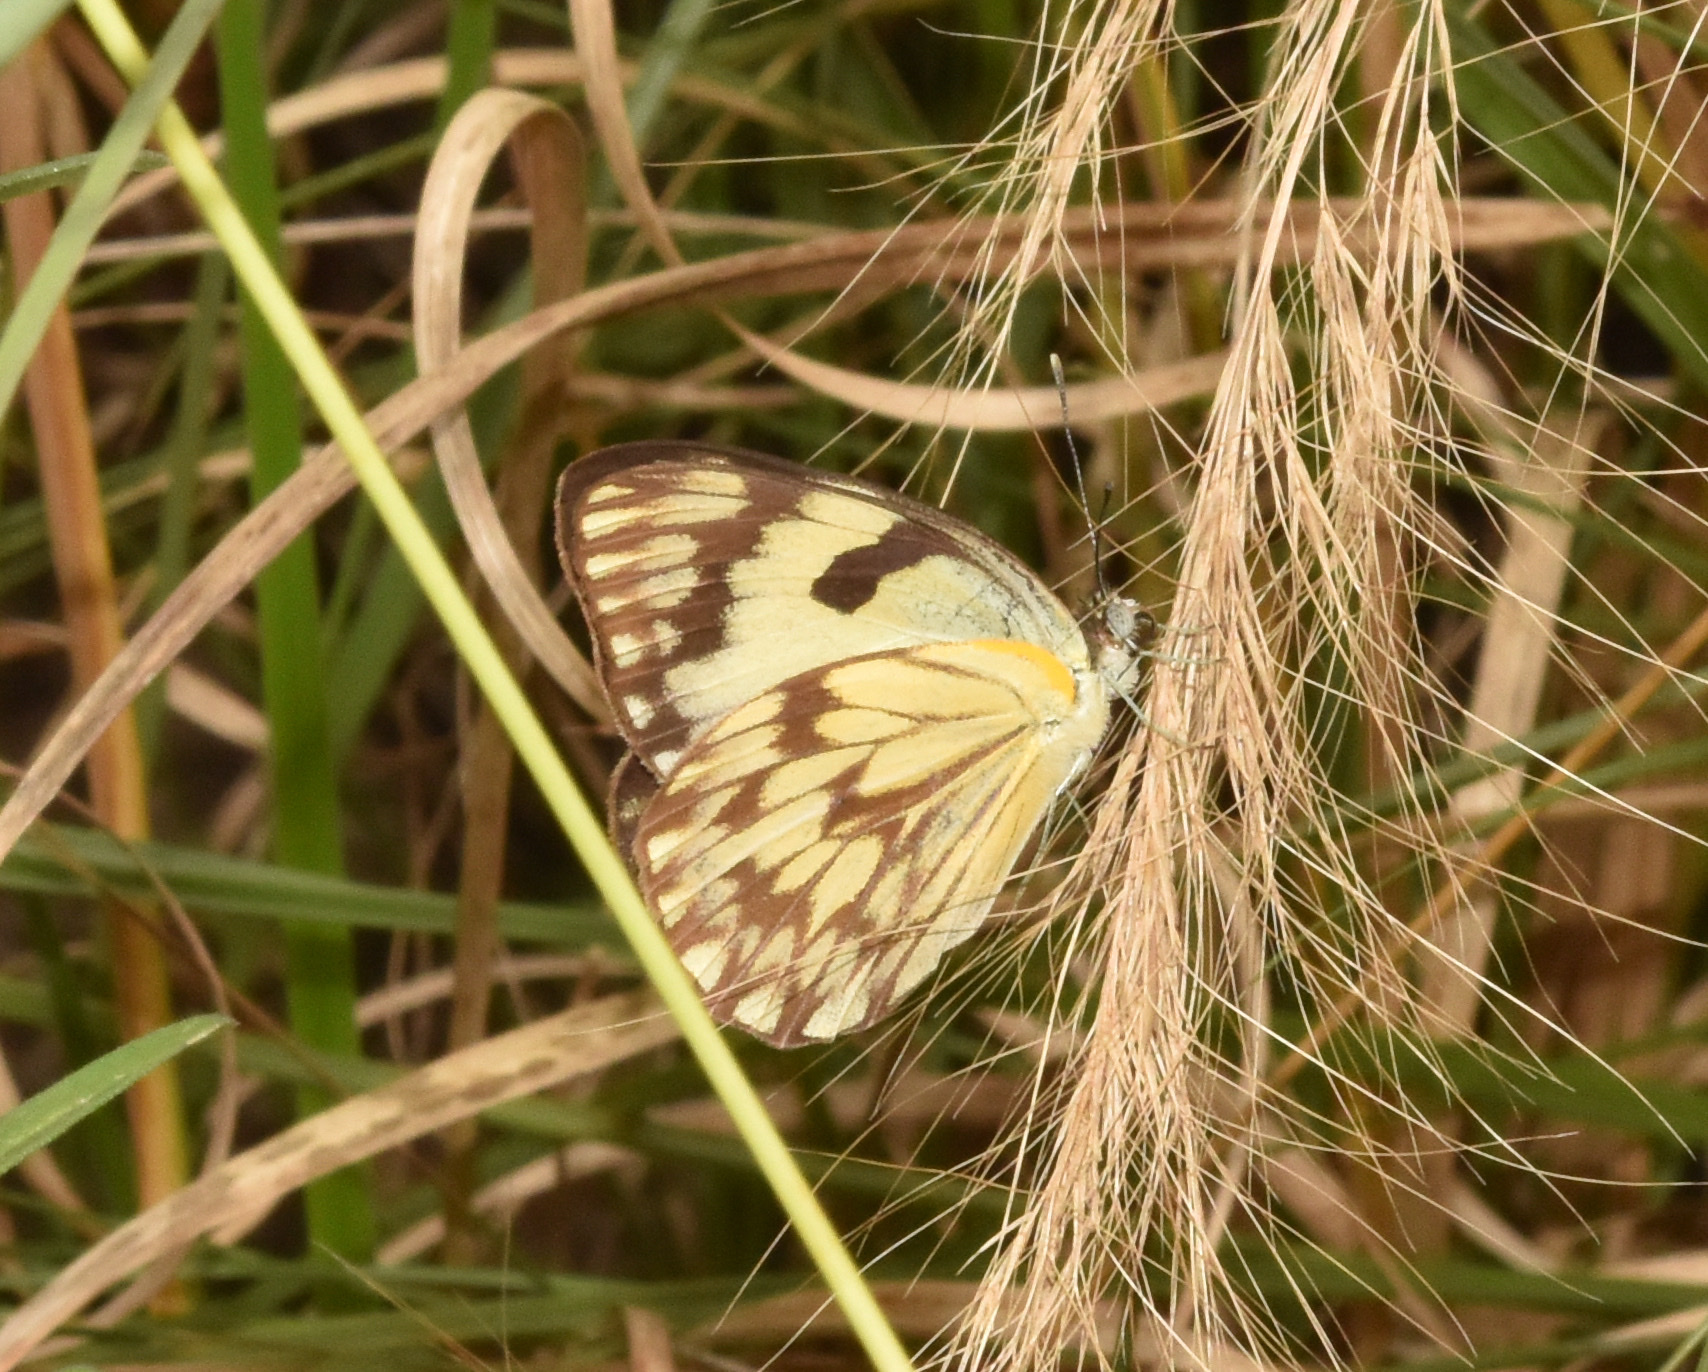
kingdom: Animalia
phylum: Arthropoda
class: Insecta
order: Lepidoptera
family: Pieridae
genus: Belenois
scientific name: Belenois gidica
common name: Pointed caper white
